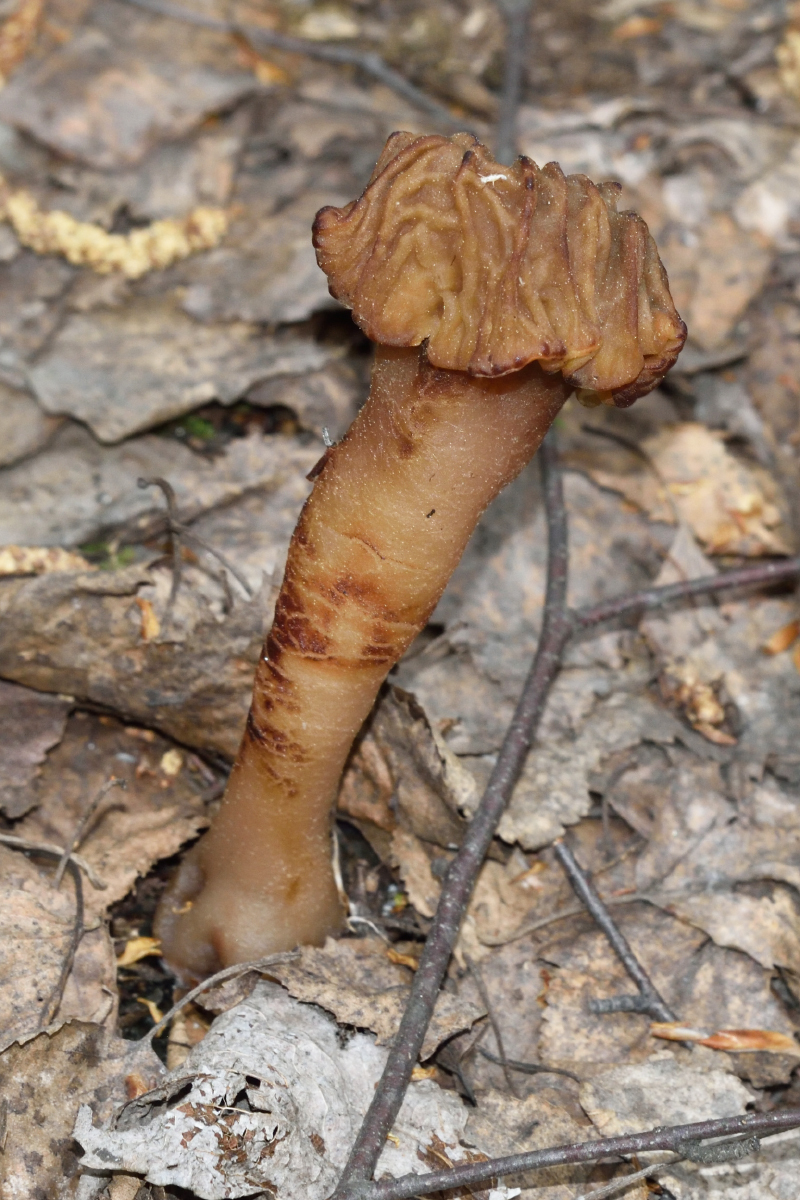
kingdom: Fungi
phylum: Ascomycota
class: Pezizomycetes
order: Pezizales
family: Morchellaceae
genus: Verpa
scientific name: Verpa bohemica
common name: Wrinkled thimble morel
